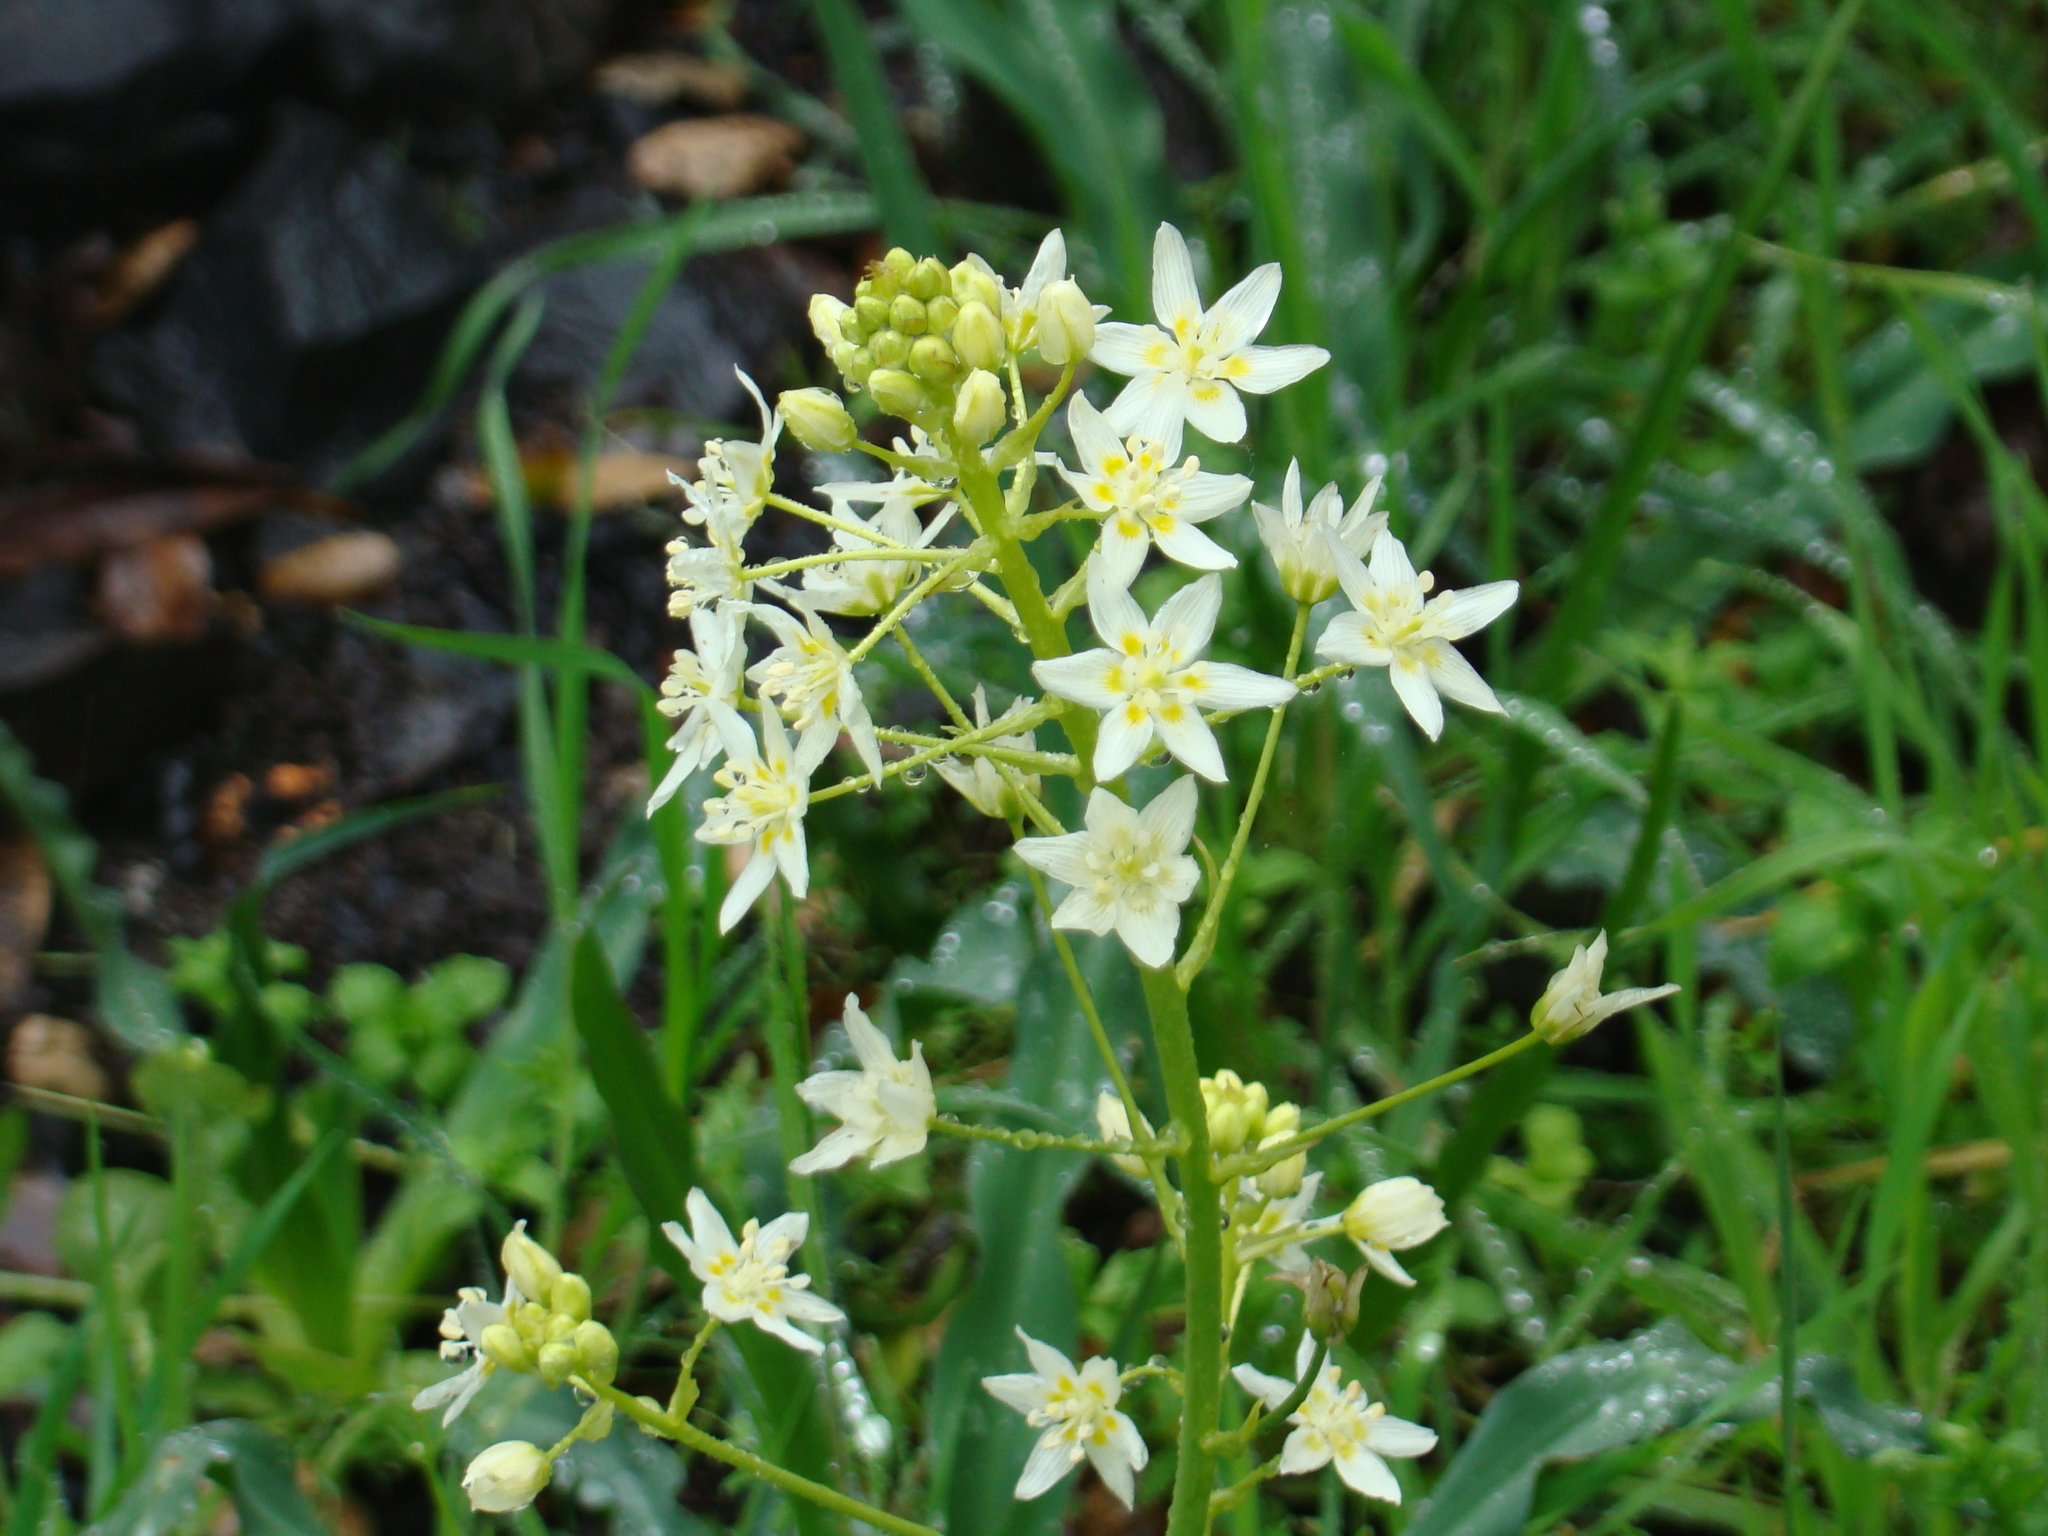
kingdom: Plantae
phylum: Tracheophyta
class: Liliopsida
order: Liliales
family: Melanthiaceae
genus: Toxicoscordion
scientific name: Toxicoscordion fremontii
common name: Fremont's death camas
